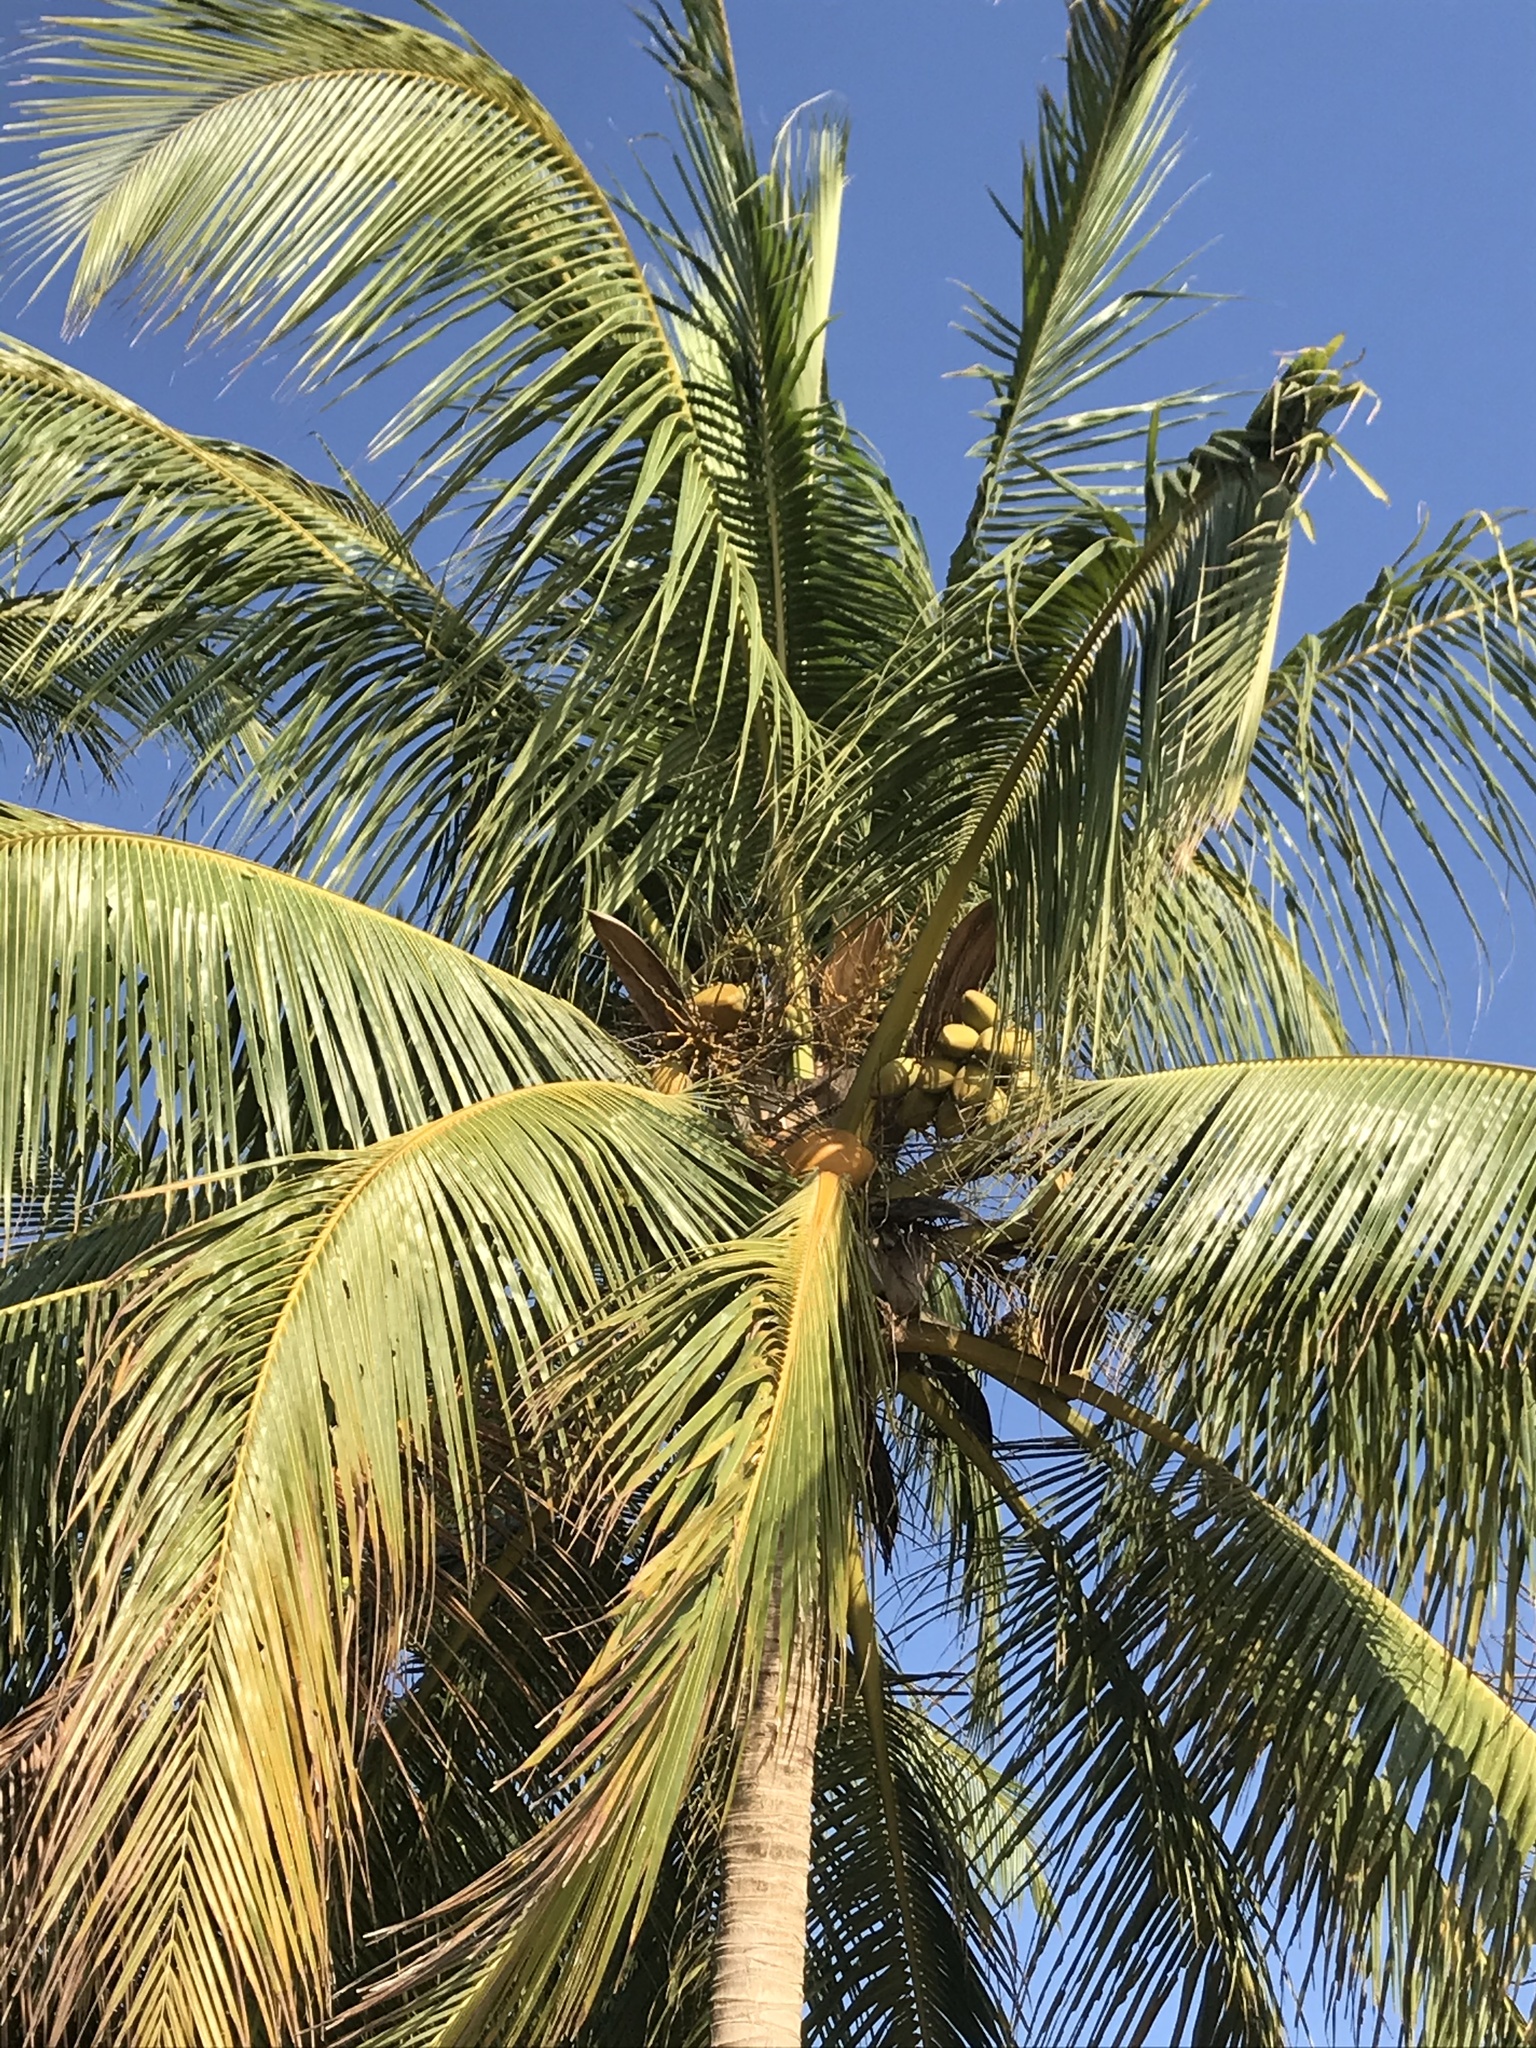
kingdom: Plantae
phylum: Tracheophyta
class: Liliopsida
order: Arecales
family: Arecaceae
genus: Cocos
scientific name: Cocos nucifera
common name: Coconut palm
